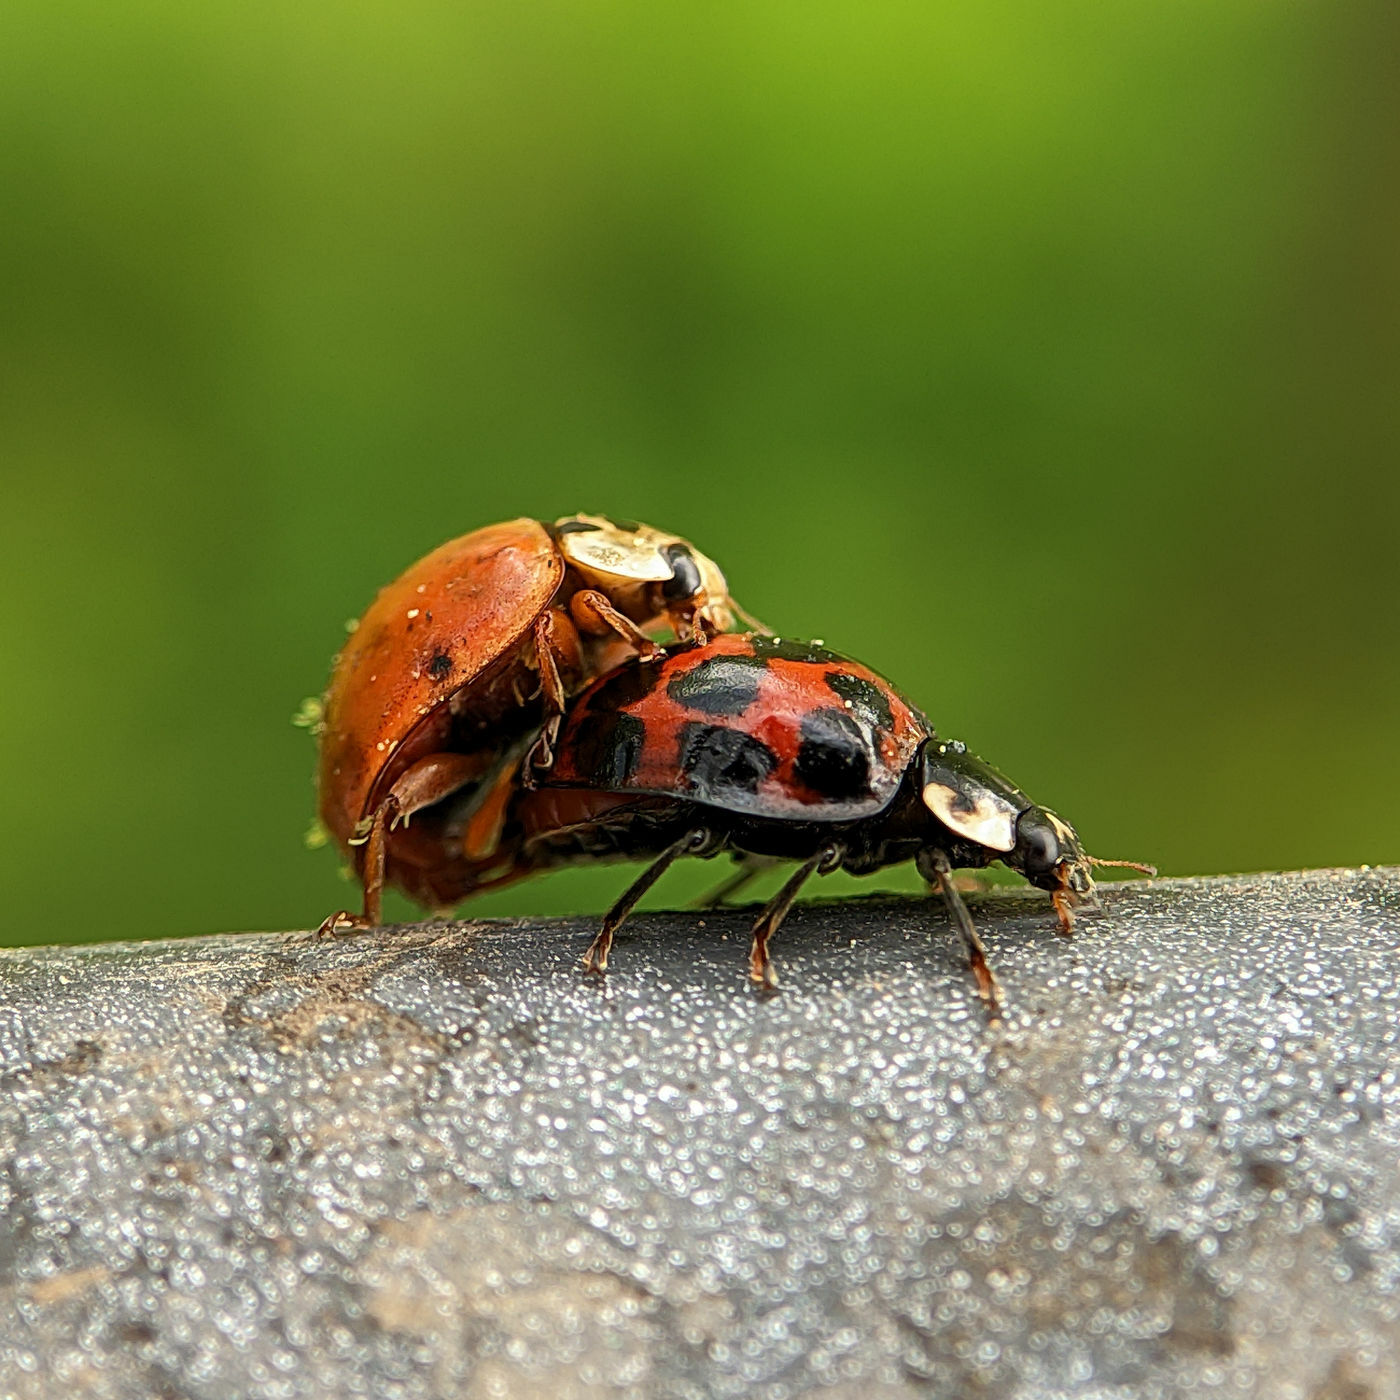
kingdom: Animalia
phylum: Arthropoda
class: Insecta
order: Coleoptera
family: Coccinellidae
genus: Harmonia
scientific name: Harmonia axyridis
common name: Harlequin ladybird
